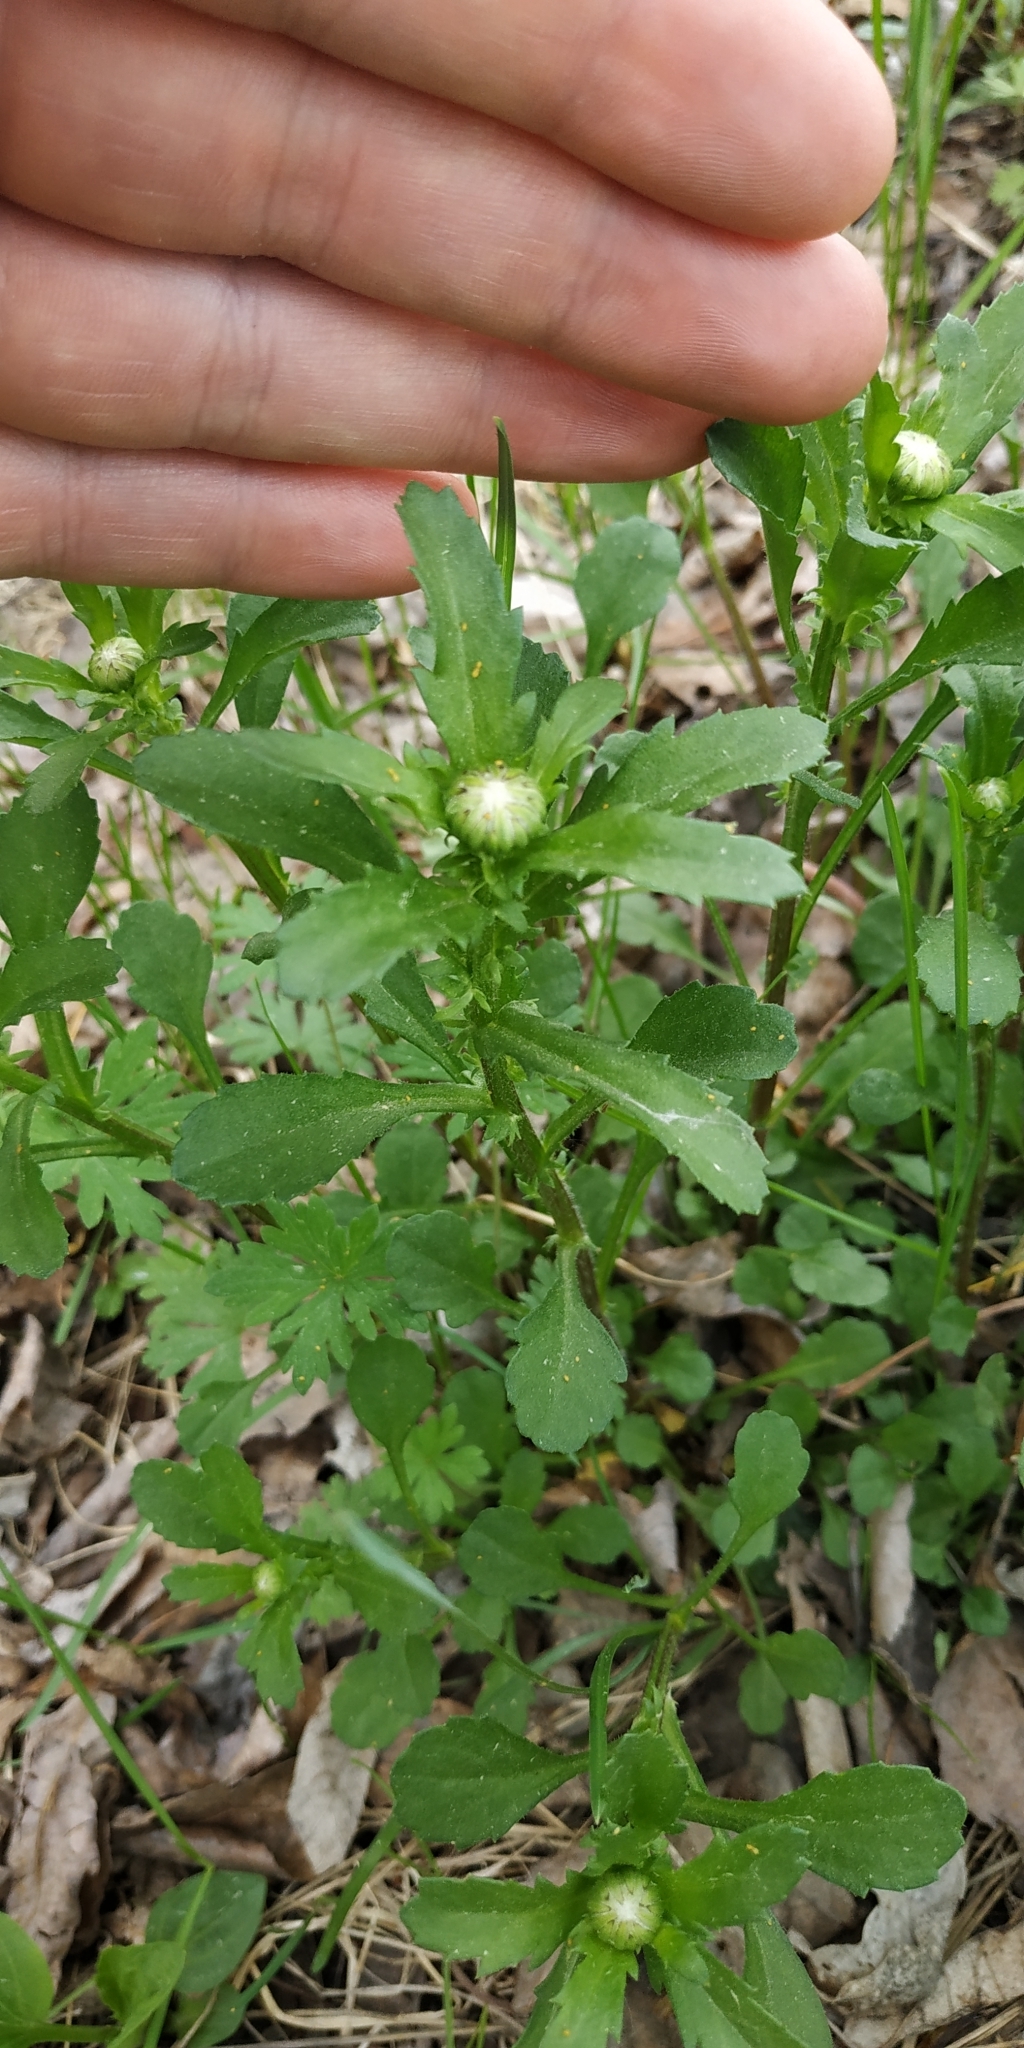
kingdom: Plantae
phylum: Tracheophyta
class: Magnoliopsida
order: Asterales
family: Asteraceae
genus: Leucanthemum
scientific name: Leucanthemum ircutianum
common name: Daisy
